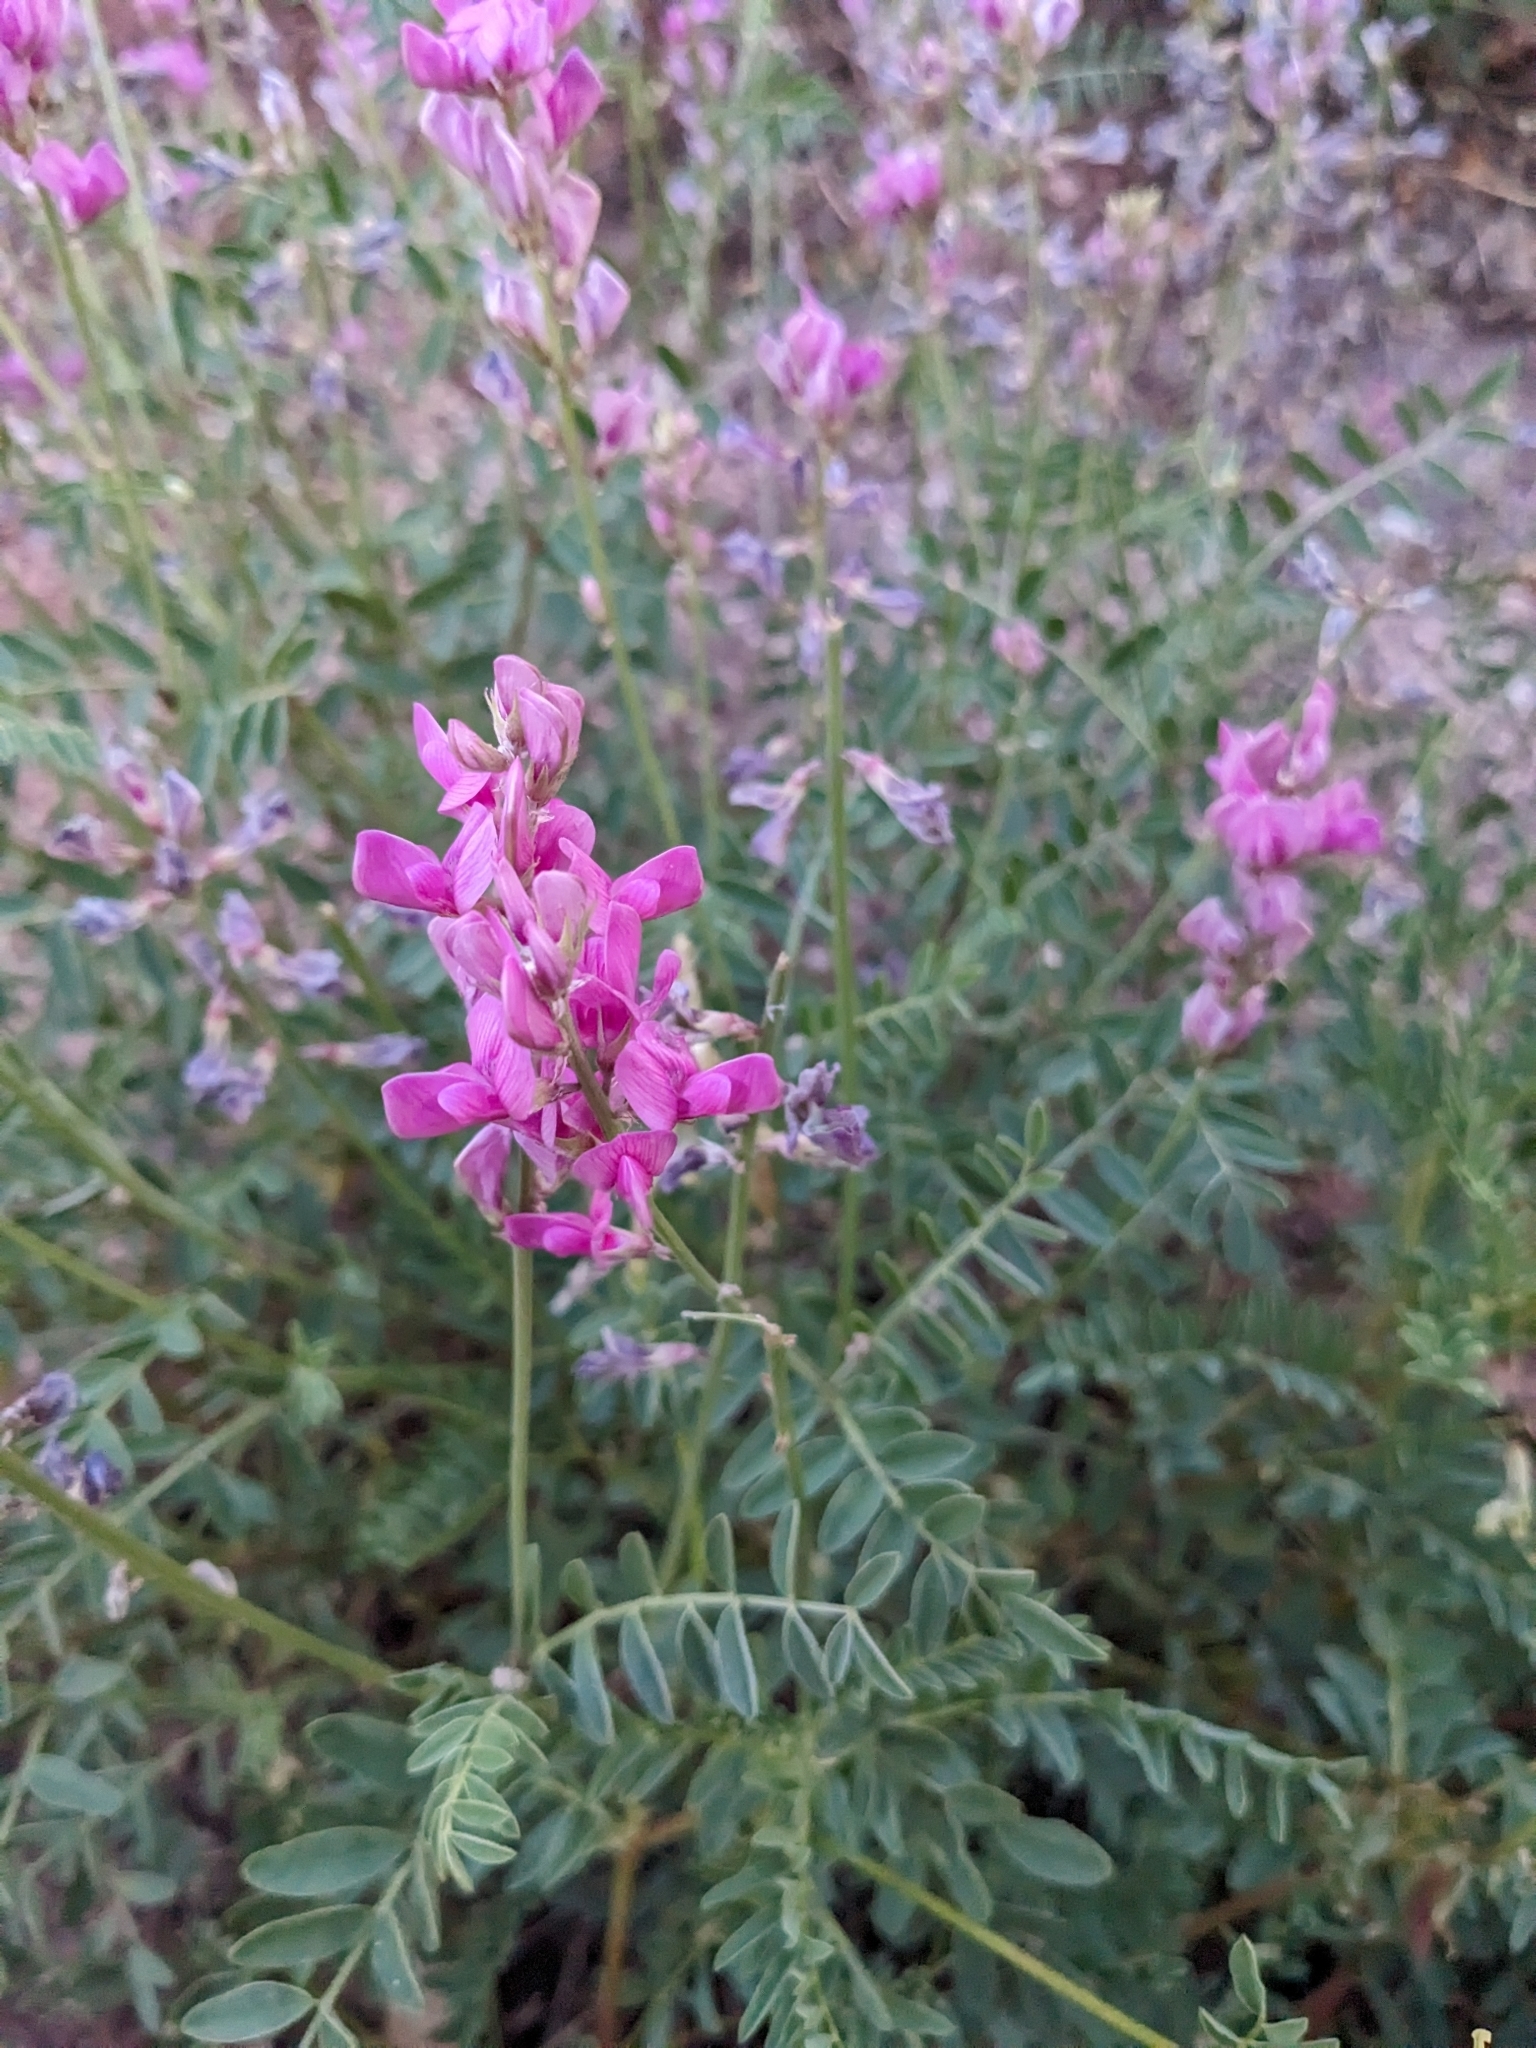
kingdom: Plantae
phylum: Tracheophyta
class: Magnoliopsida
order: Fabales
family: Fabaceae
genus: Hedysarum
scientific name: Hedysarum boreale
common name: Northern sweet-vetch
